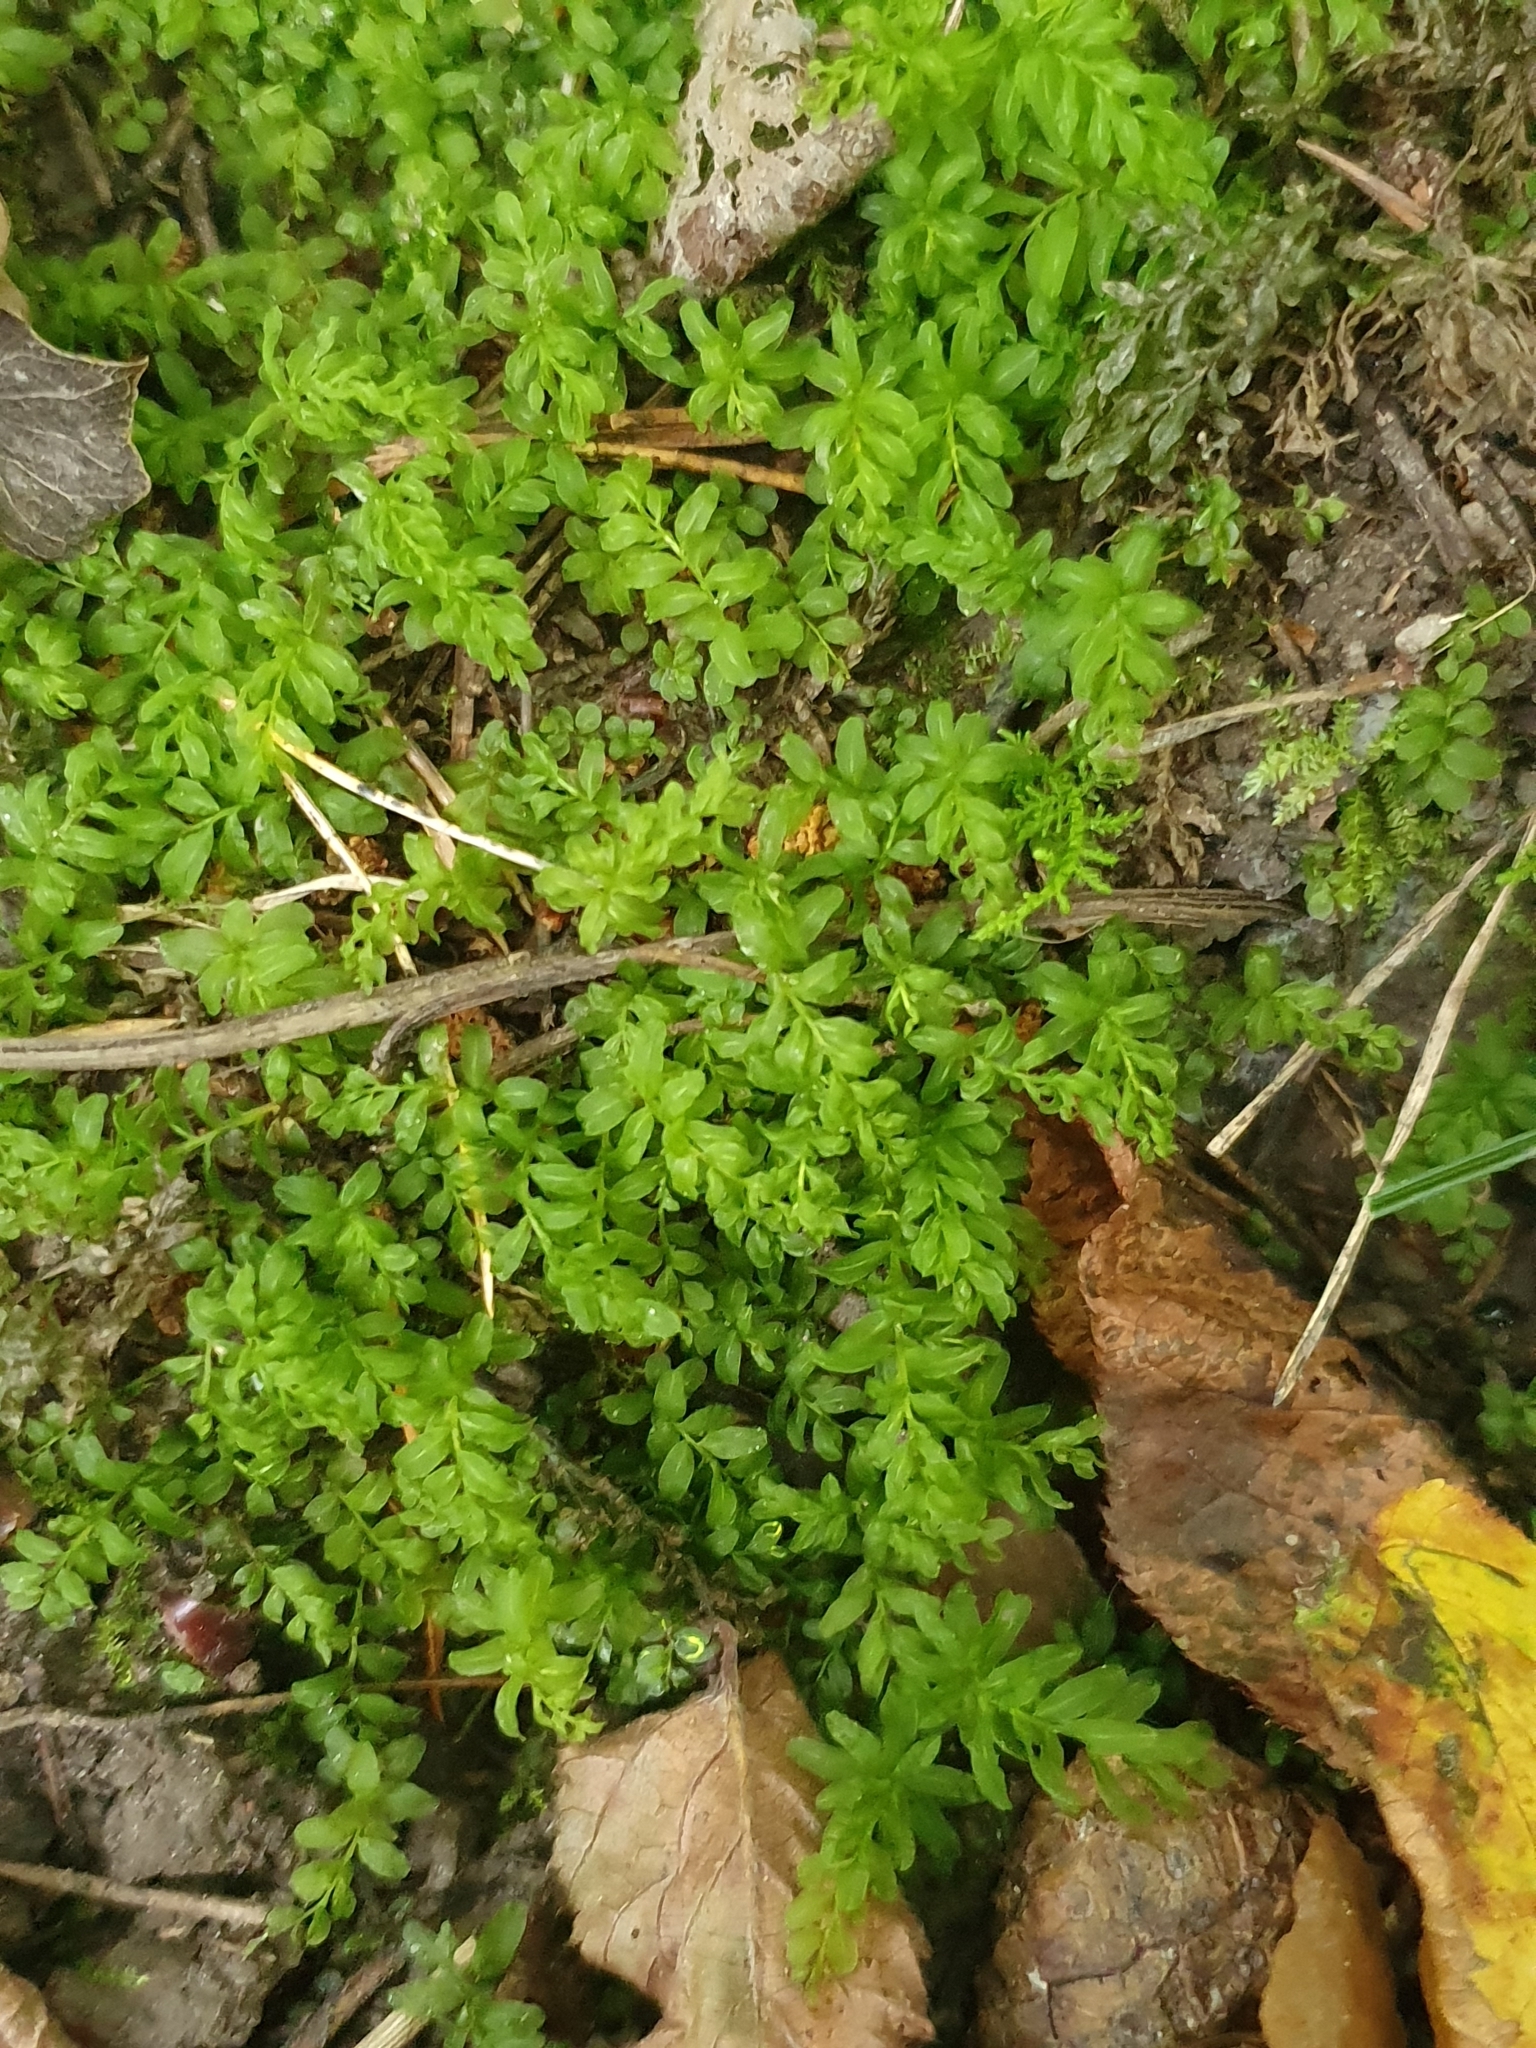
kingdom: Plantae
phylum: Bryophyta
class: Bryopsida
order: Bryales
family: Mniaceae
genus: Plagiomnium
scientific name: Plagiomnium undulatum
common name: Hart's-tongue thyme-moss
